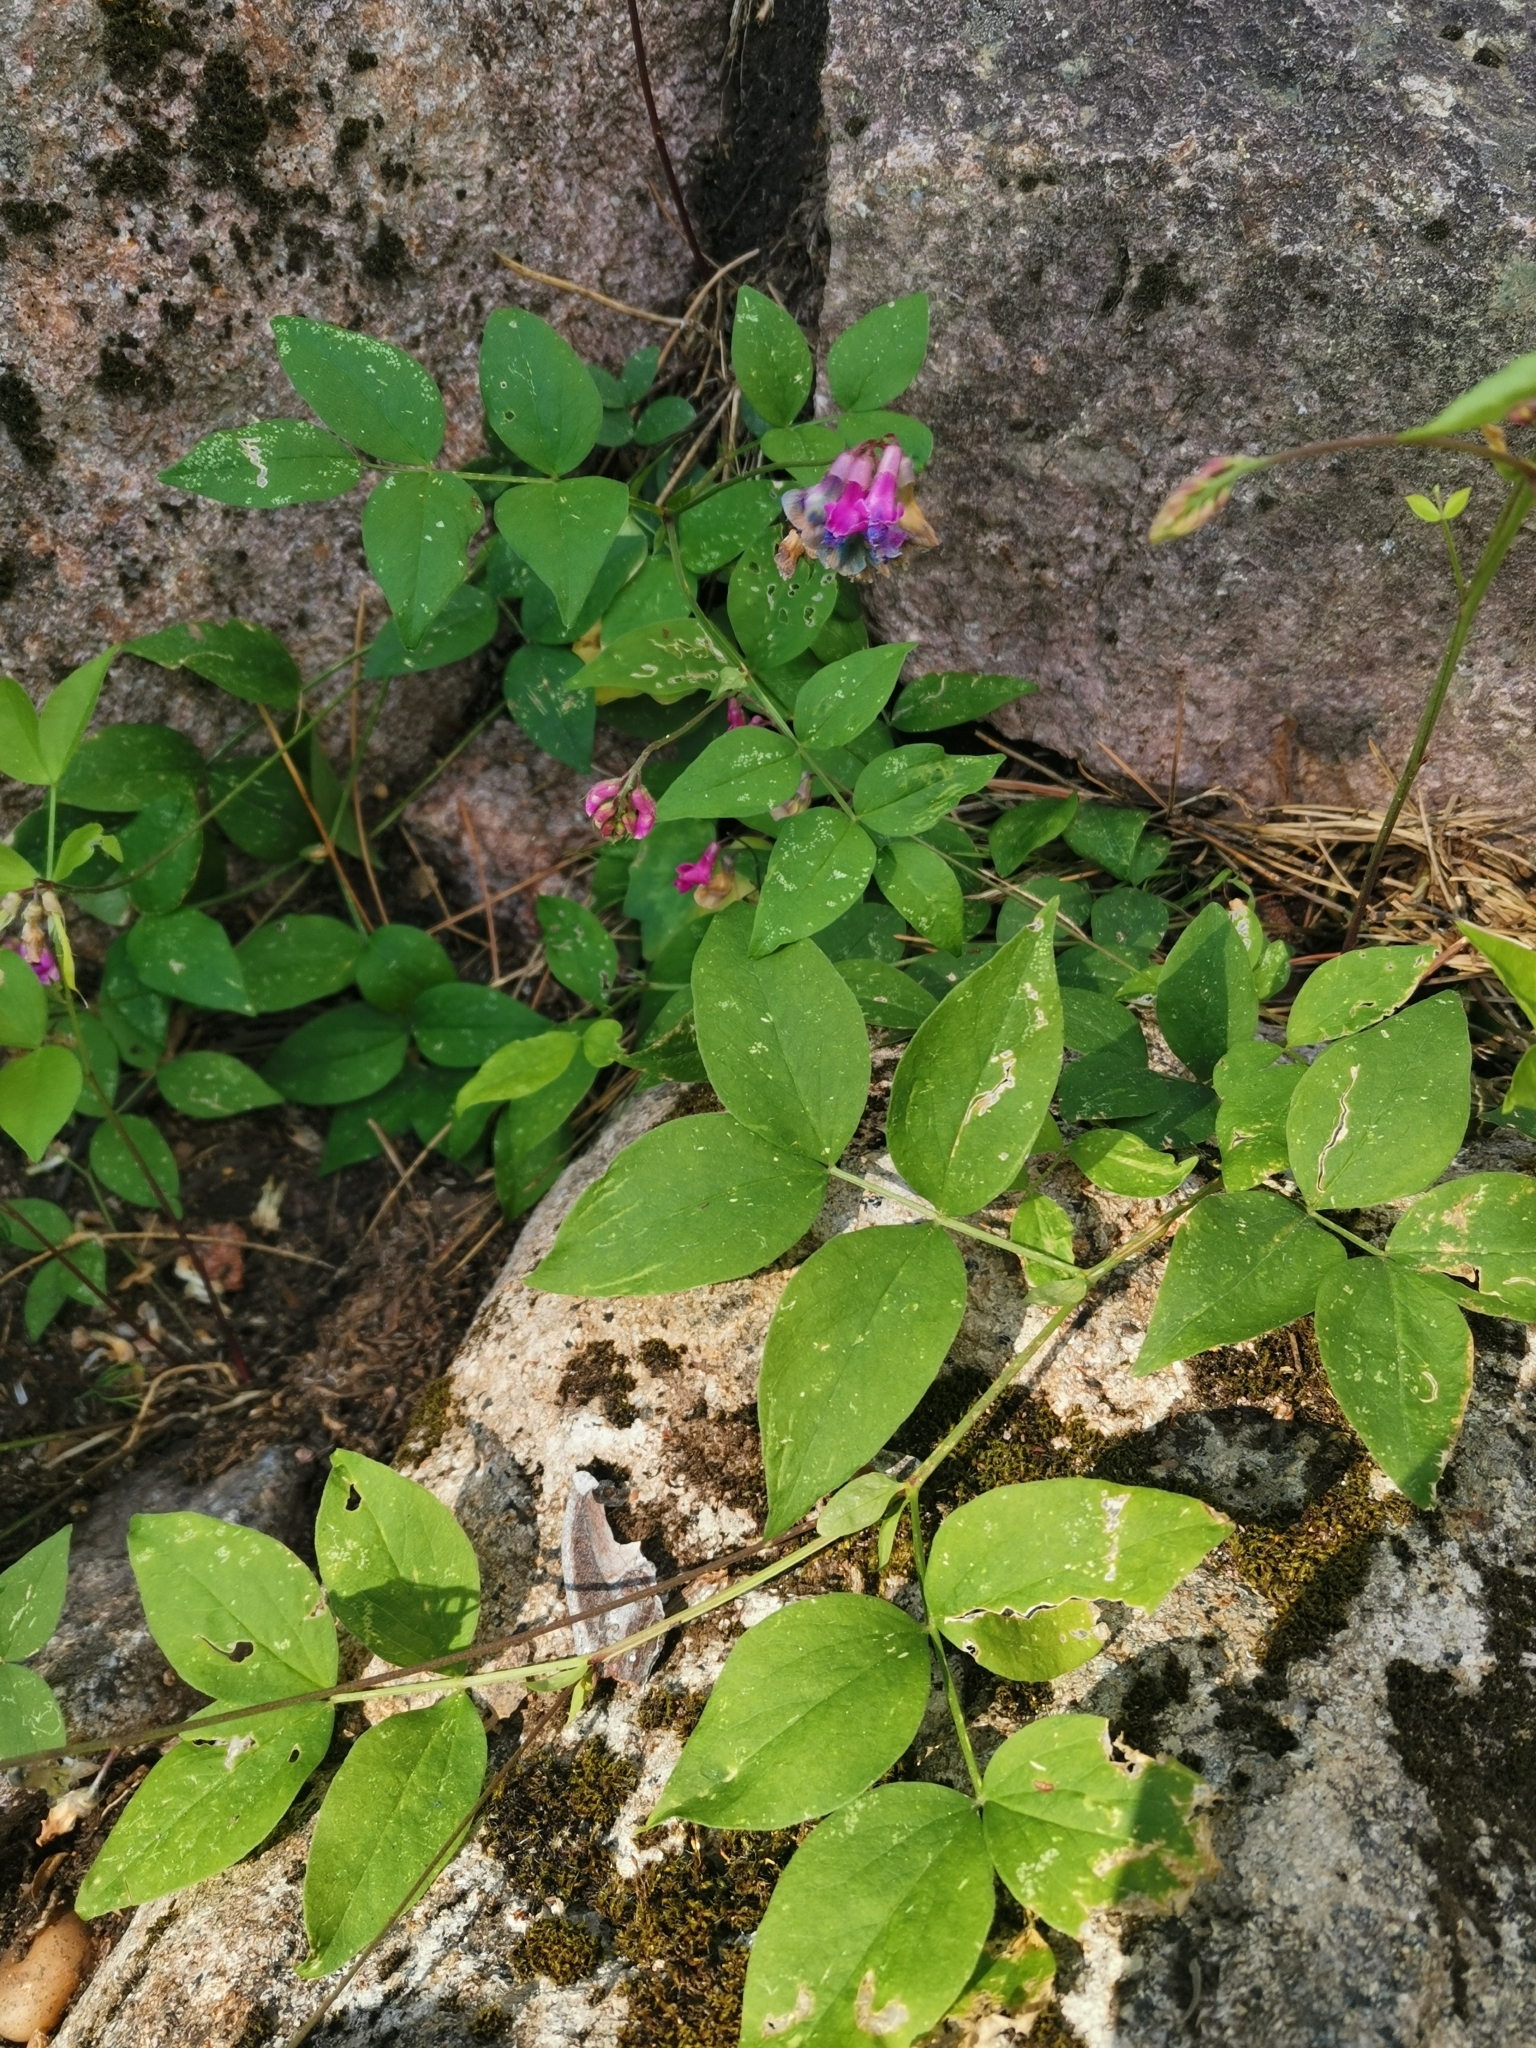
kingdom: Plantae
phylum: Tracheophyta
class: Magnoliopsida
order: Fabales
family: Fabaceae
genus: Lathyrus
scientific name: Lathyrus venetus
